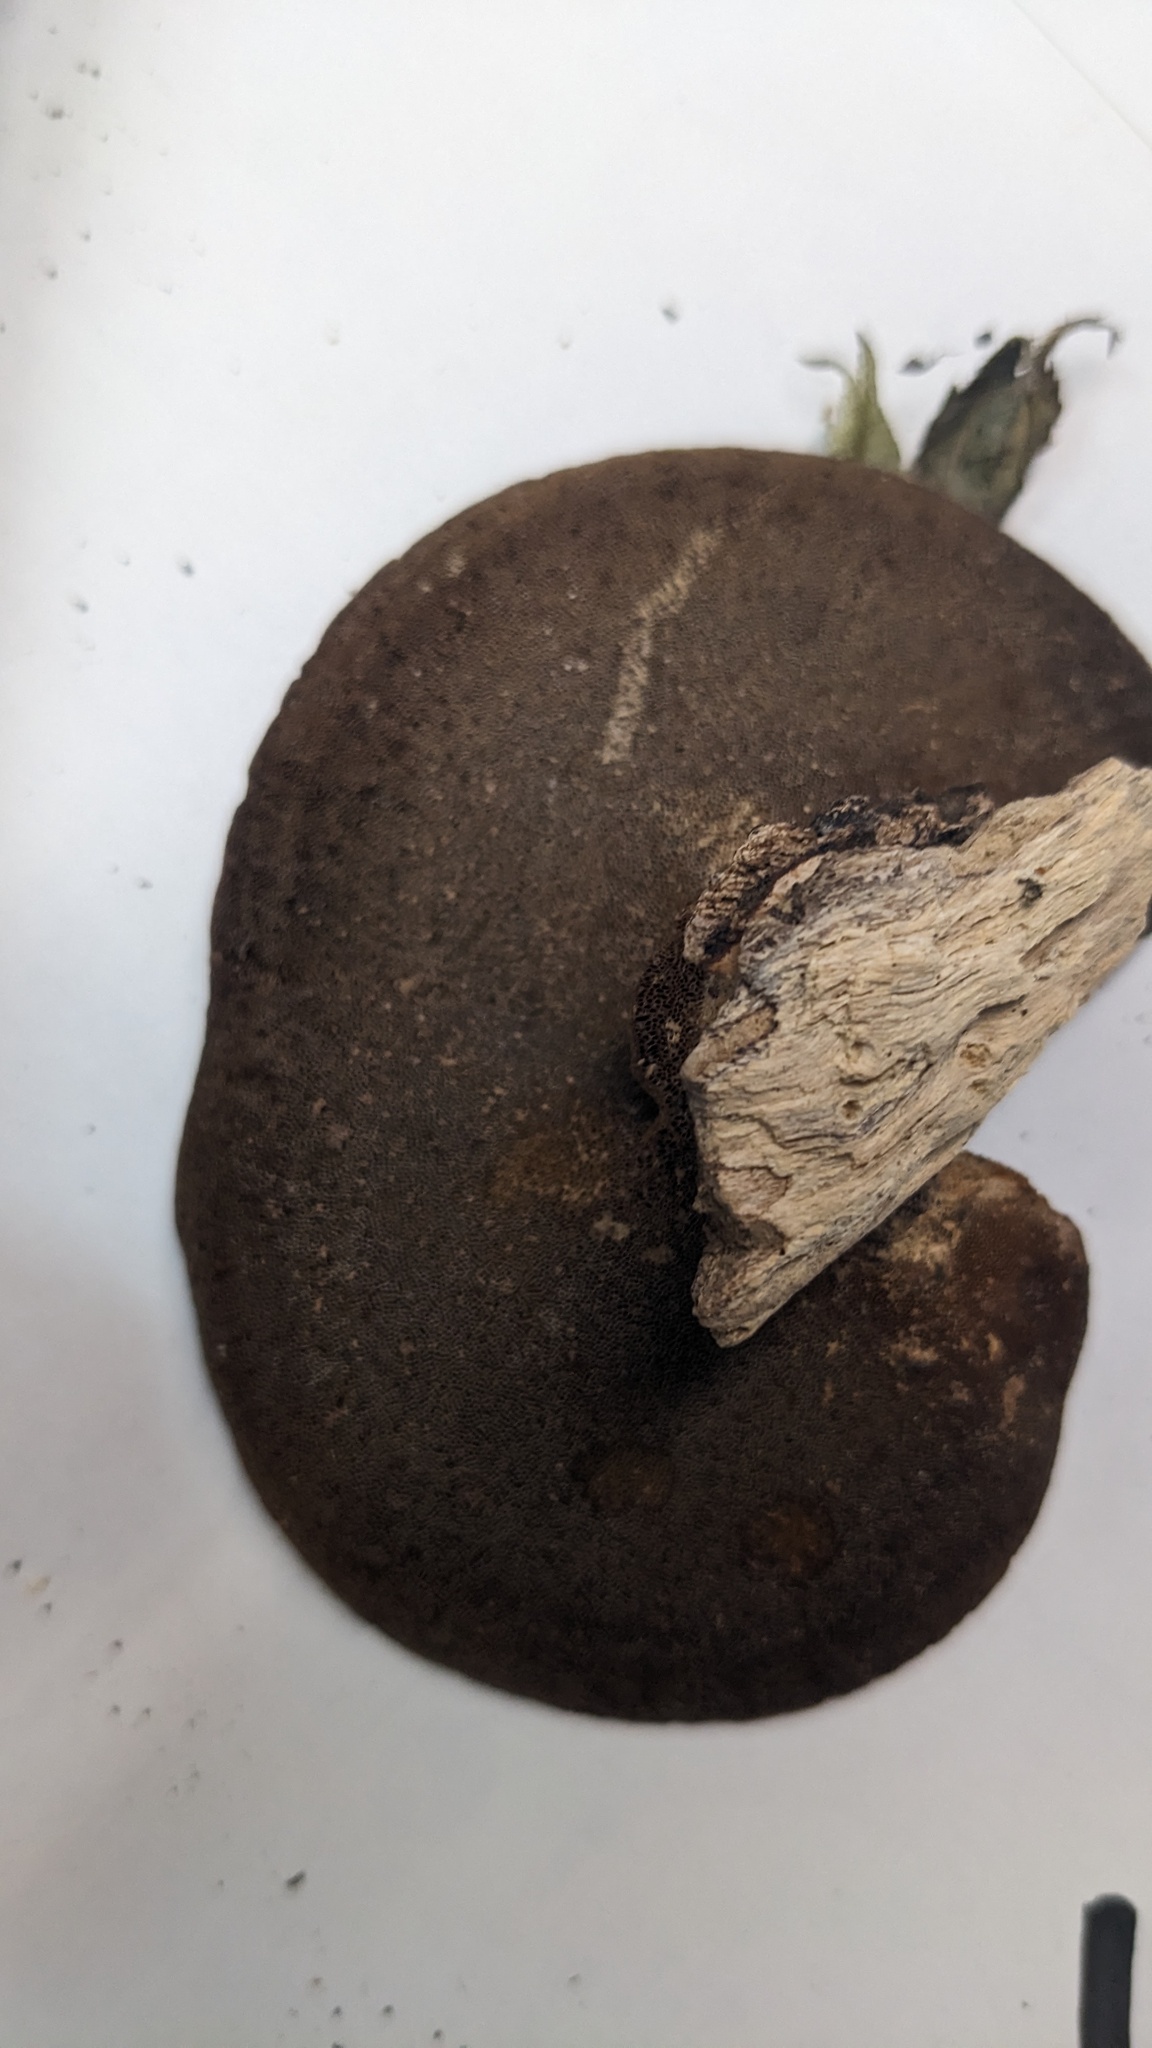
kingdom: Fungi
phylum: Basidiomycota
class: Agaricomycetes
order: Polyporales
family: Polyporaceae
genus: Trametes
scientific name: Trametes strumosa
